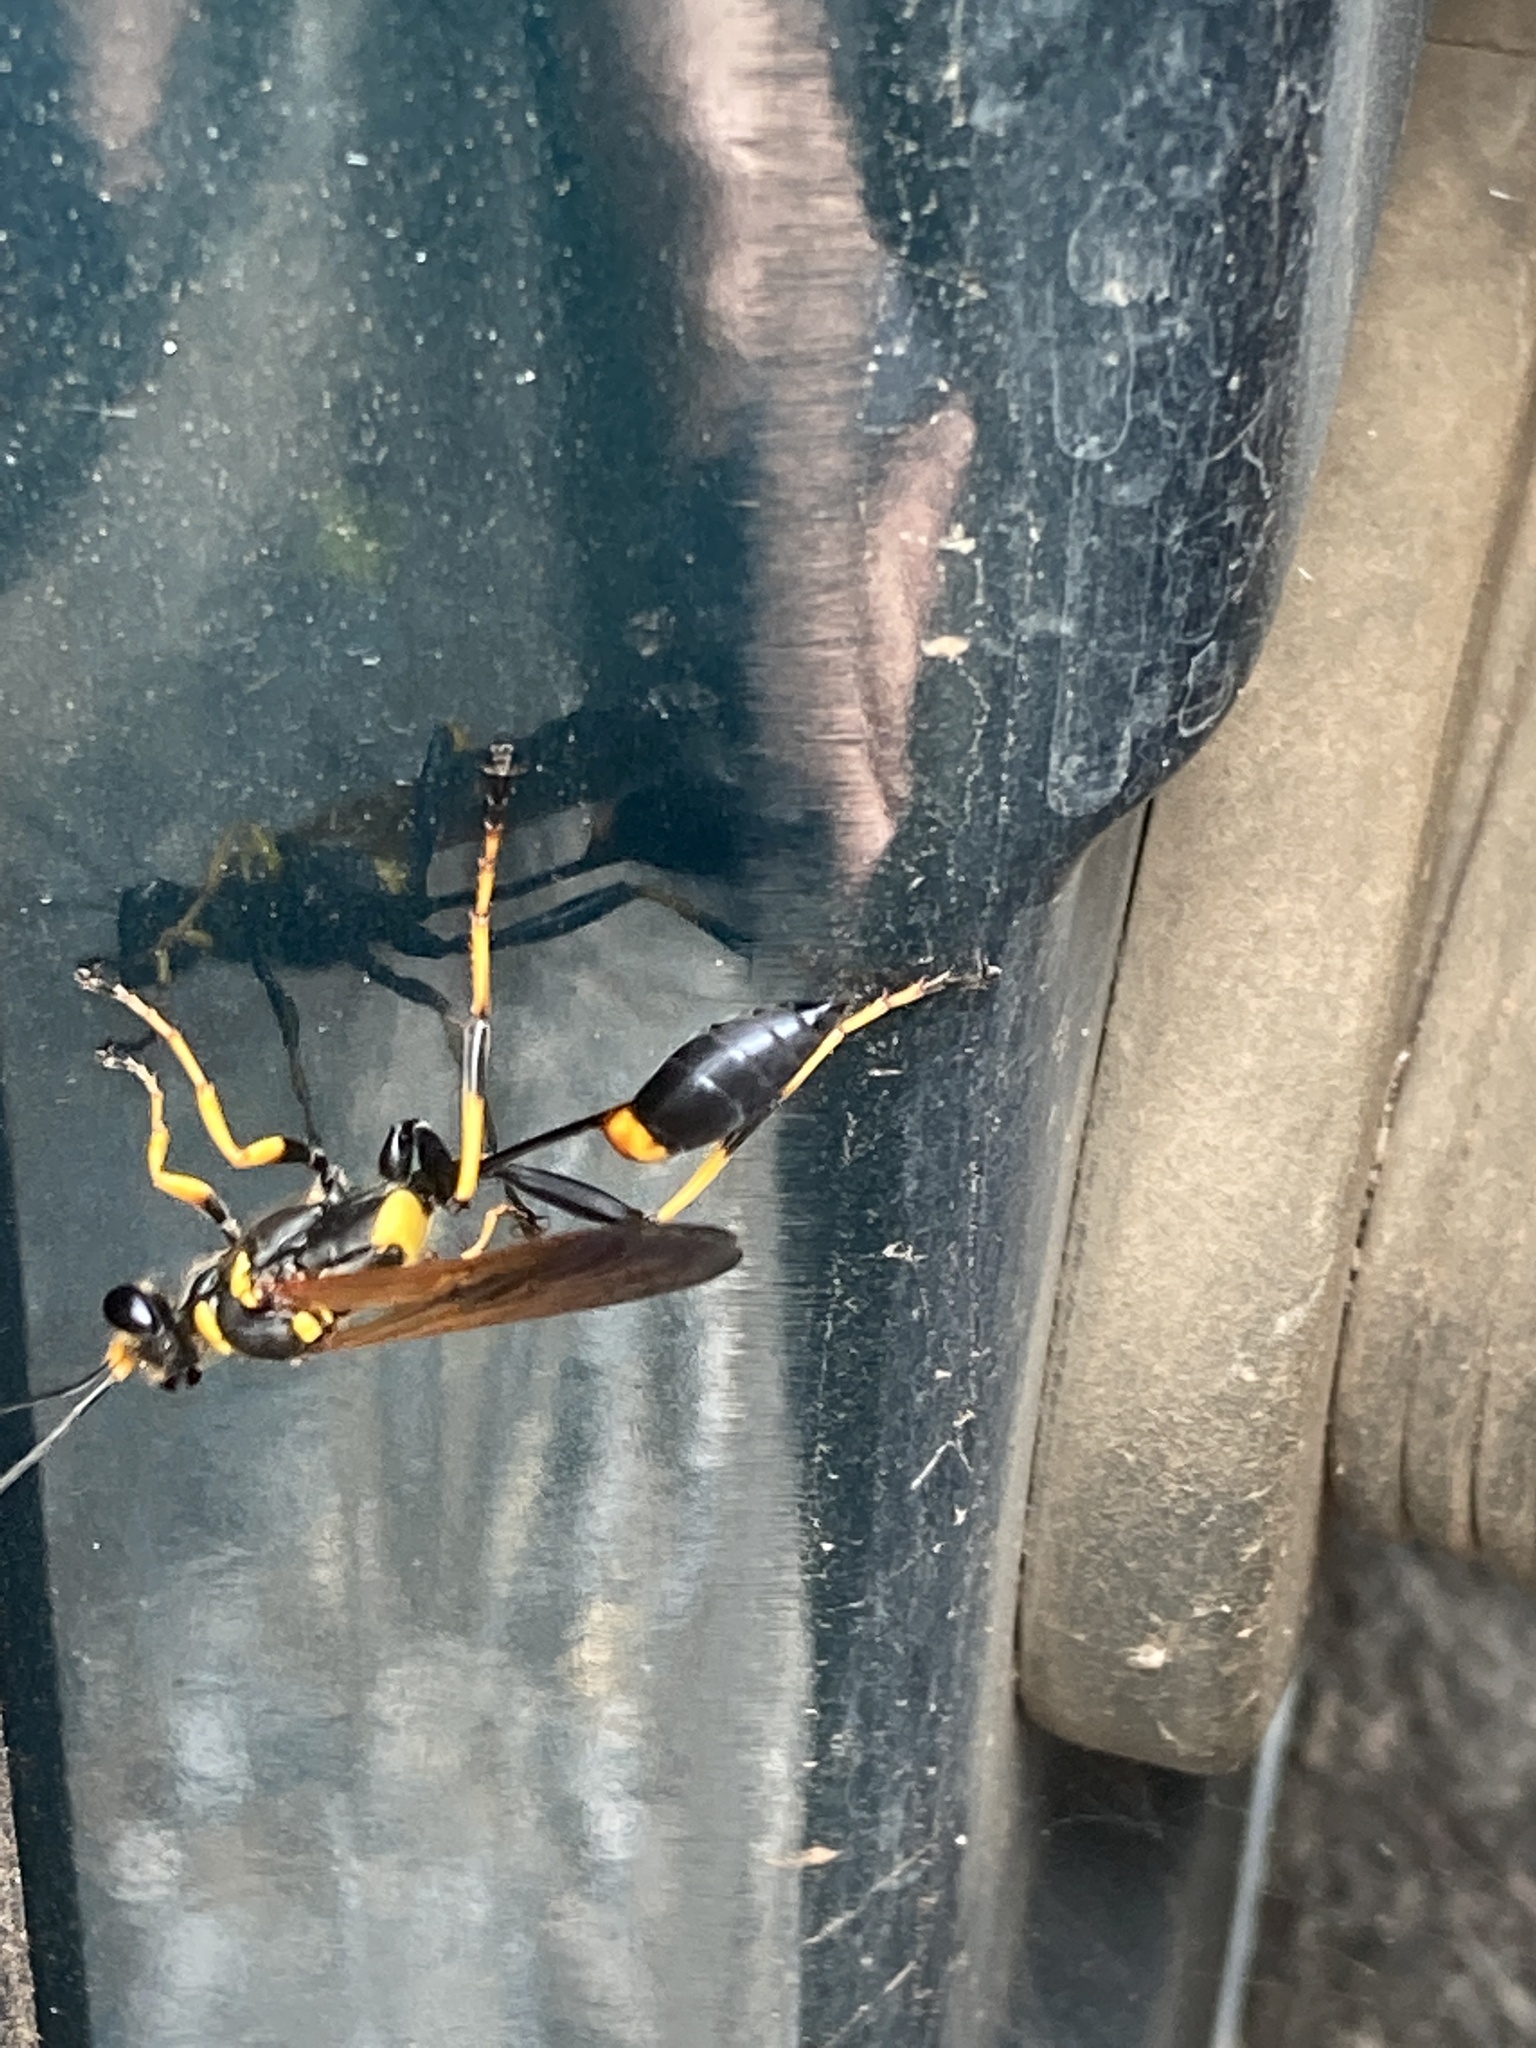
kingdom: Animalia
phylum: Arthropoda
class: Insecta
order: Hymenoptera
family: Sphecidae
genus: Sceliphron
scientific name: Sceliphron caementarium
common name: Mud dauber
